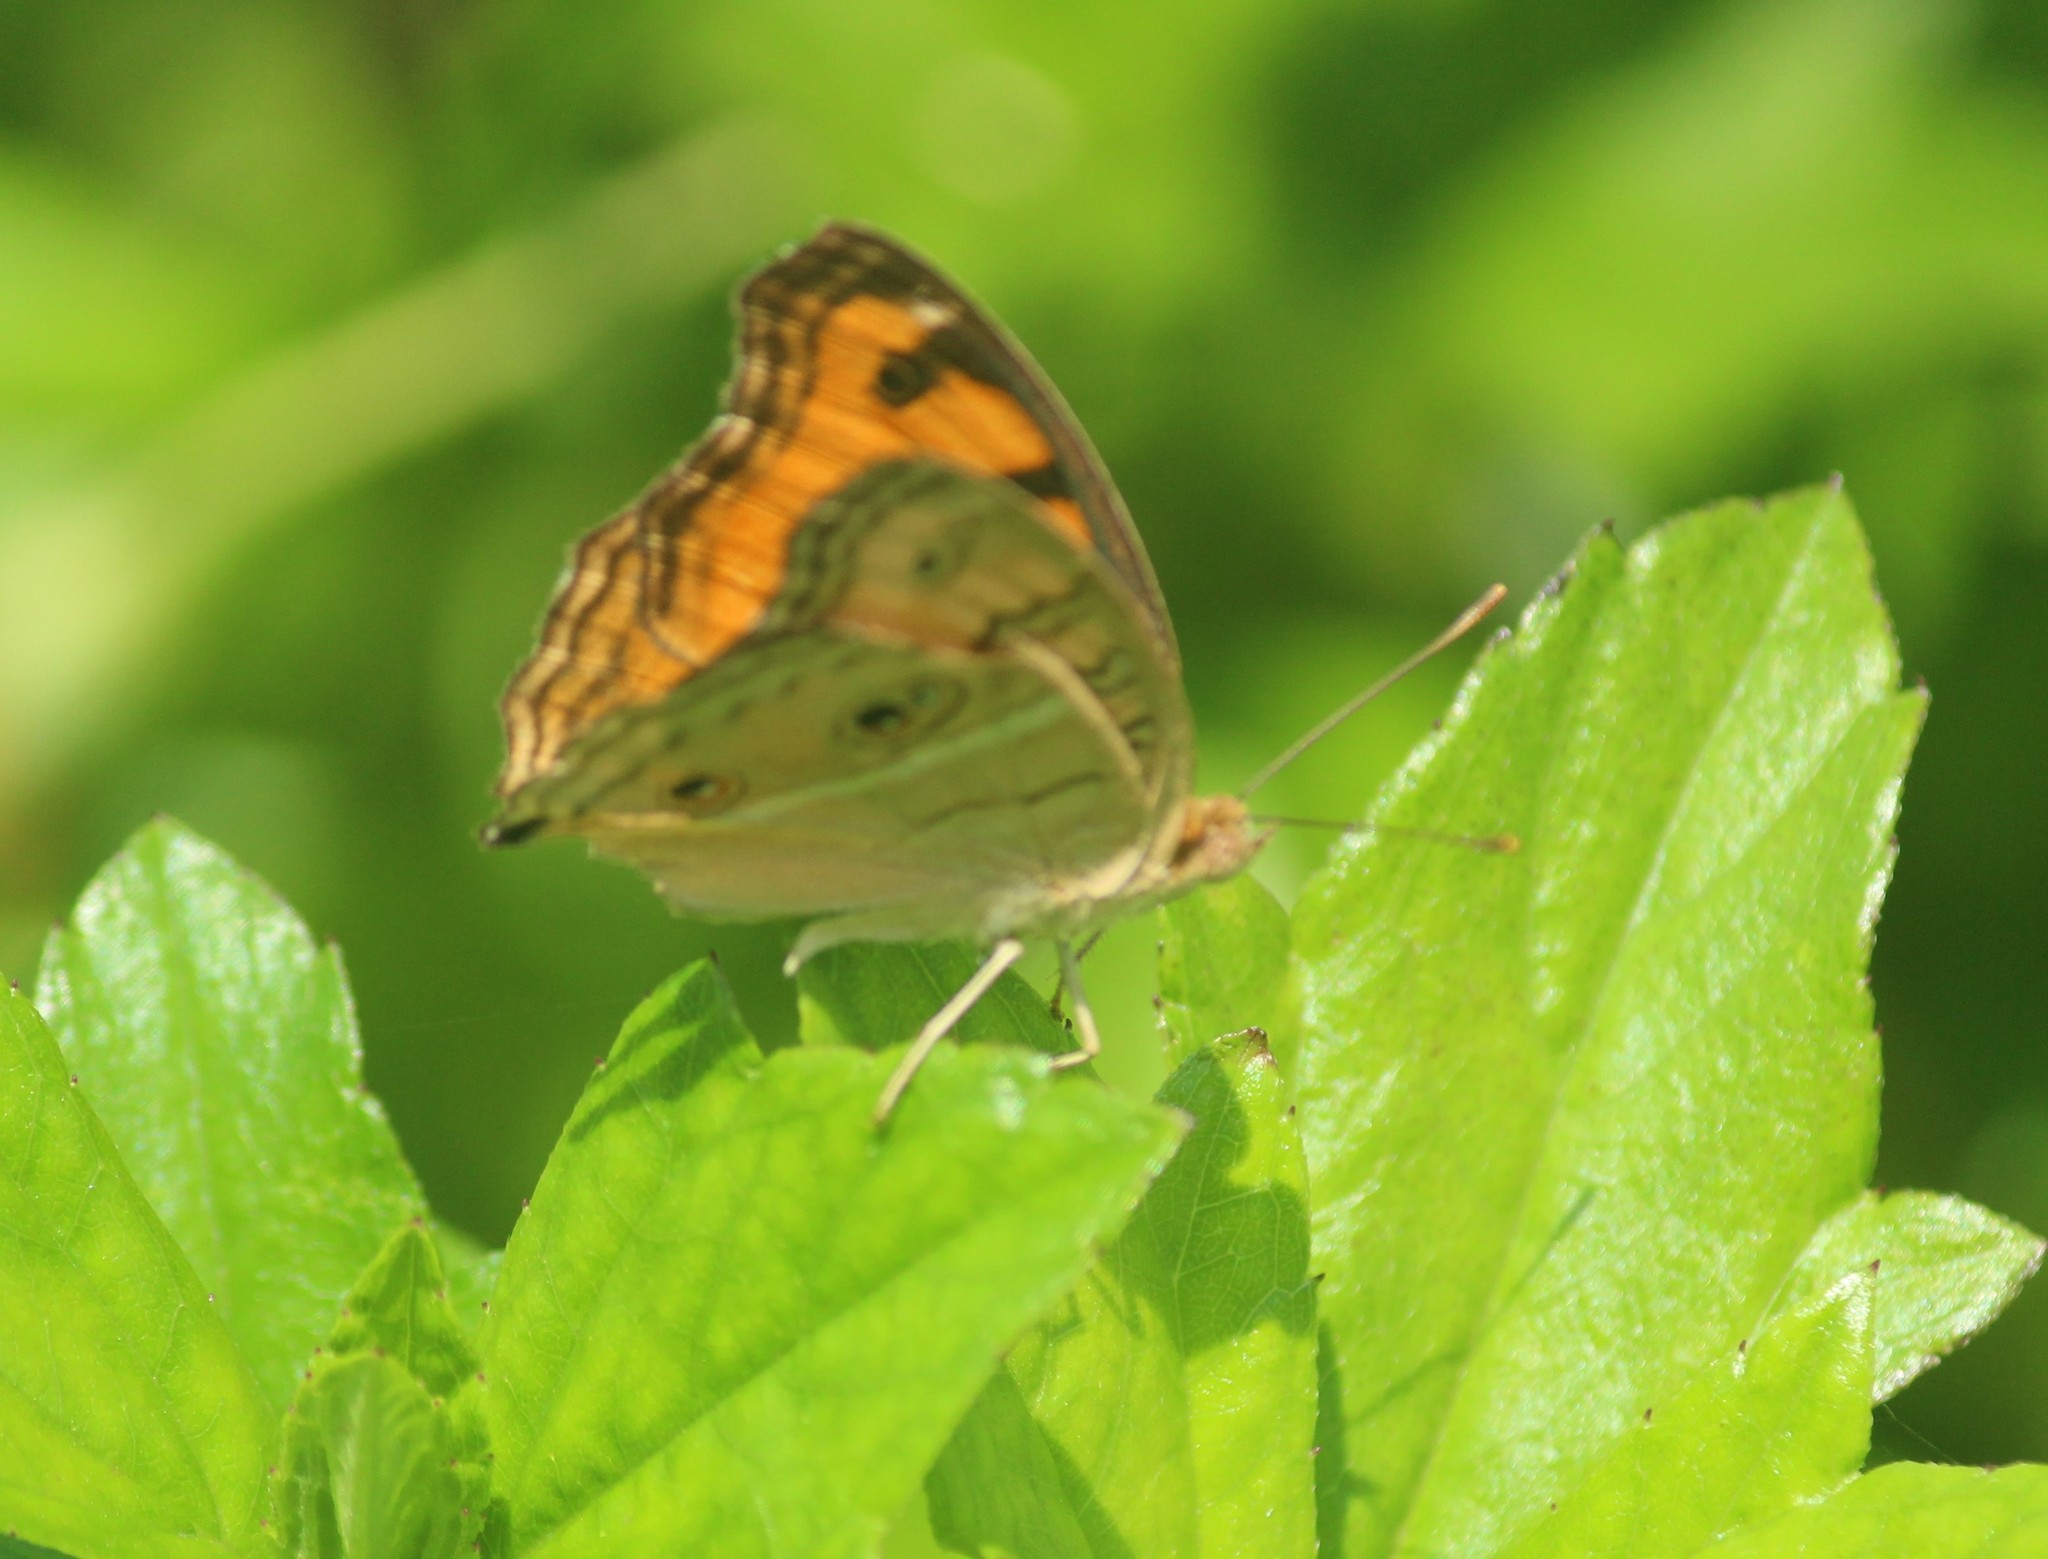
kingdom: Animalia
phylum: Arthropoda
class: Insecta
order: Lepidoptera
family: Nymphalidae
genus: Junonia
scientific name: Junonia almana
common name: Peacock pansy
